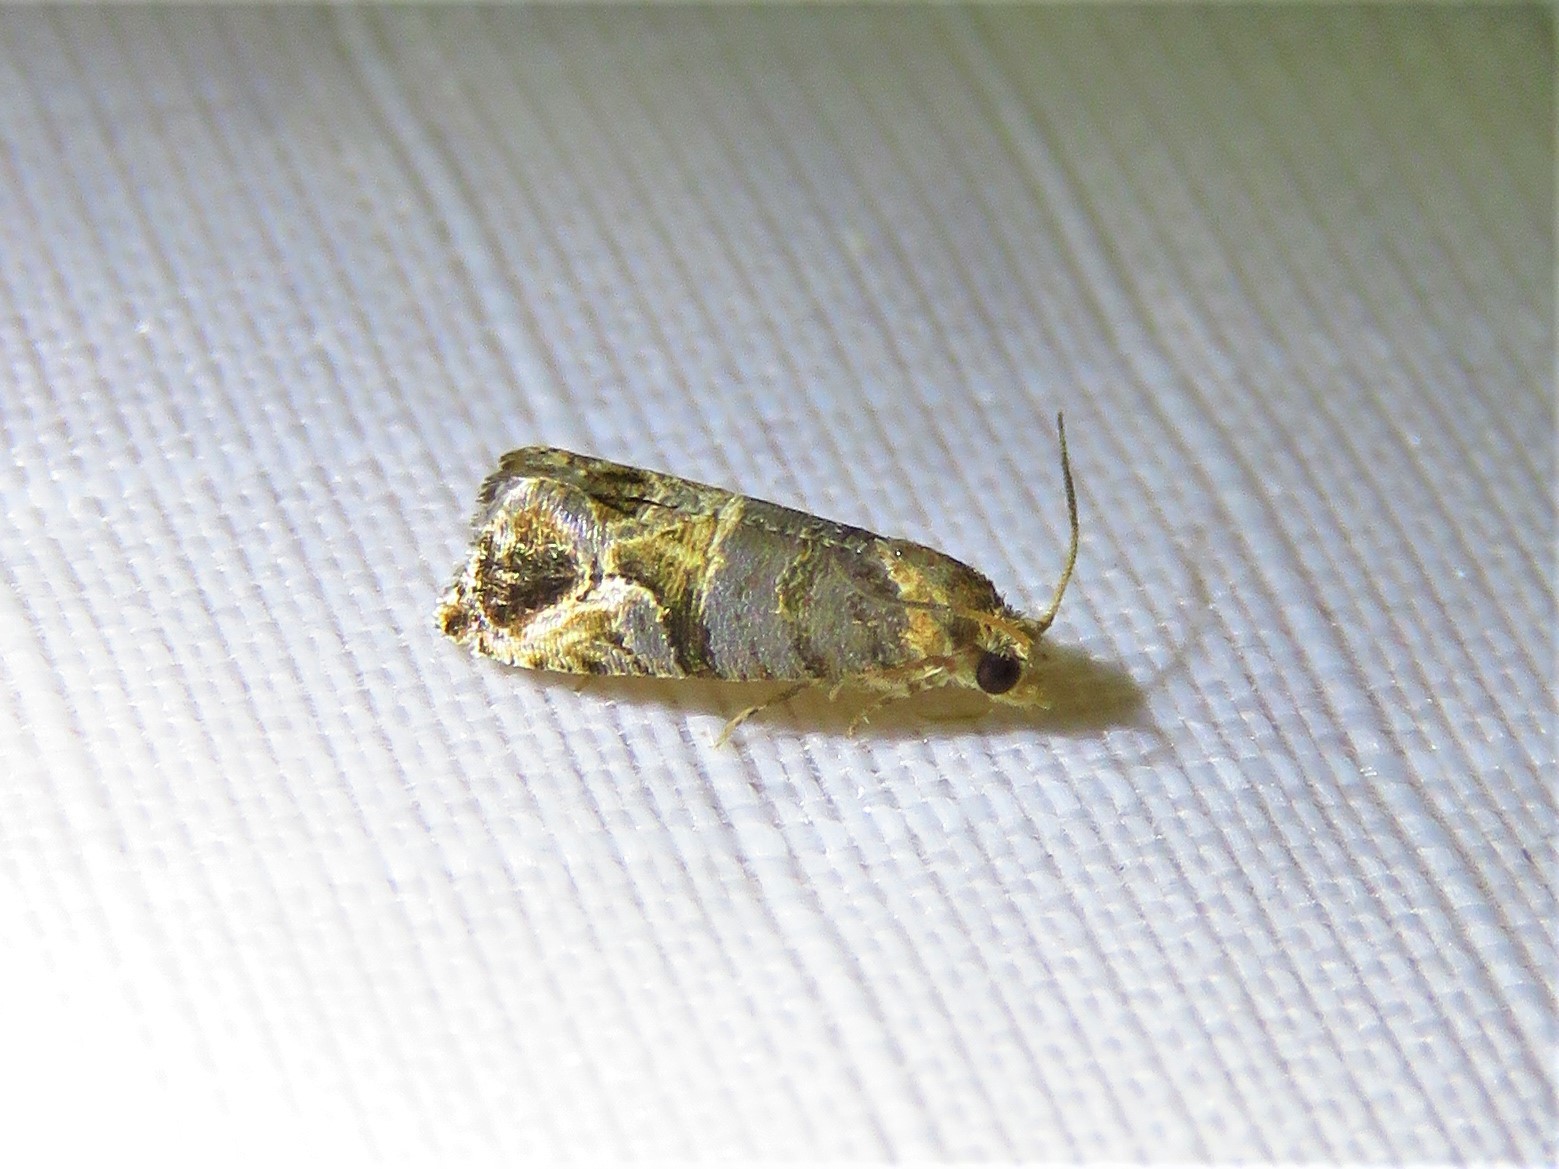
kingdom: Animalia
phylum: Arthropoda
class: Insecta
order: Lepidoptera
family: Tortricidae
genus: Paralobesia
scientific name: Paralobesia viteana
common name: Grape berry moth
